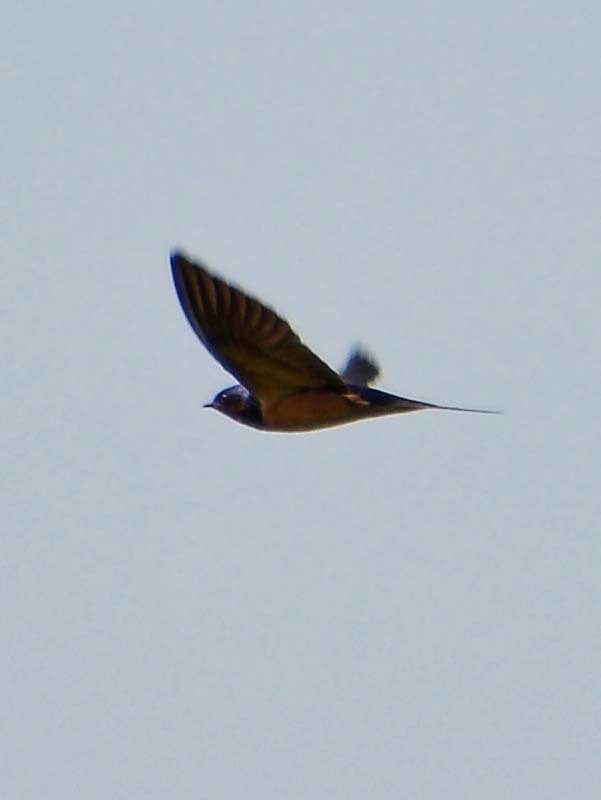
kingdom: Animalia
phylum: Chordata
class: Aves
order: Passeriformes
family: Hirundinidae
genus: Hirundo
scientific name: Hirundo rustica
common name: Barn swallow
